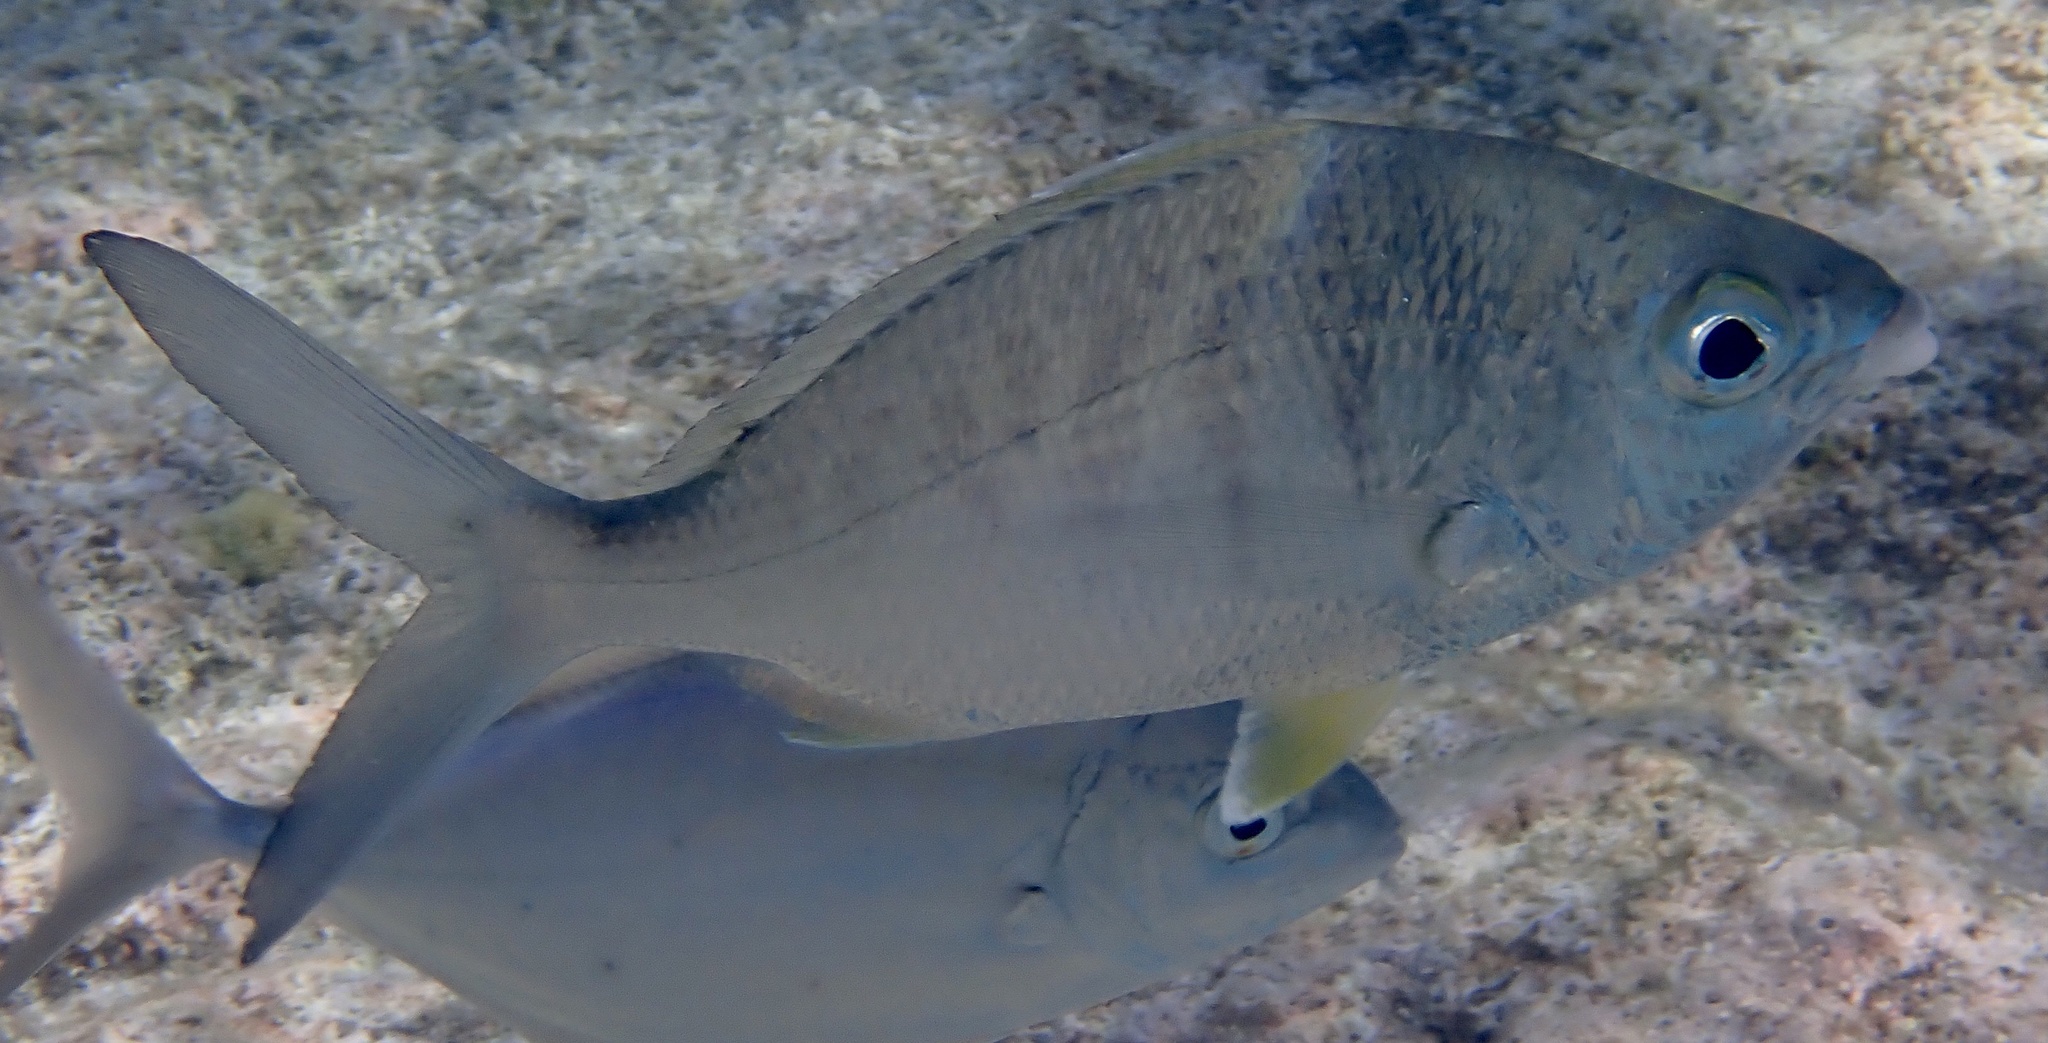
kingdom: Animalia
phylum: Chordata
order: Perciformes
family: Gerreidae
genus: Gerres
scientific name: Gerres cinereus
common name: Hedow
